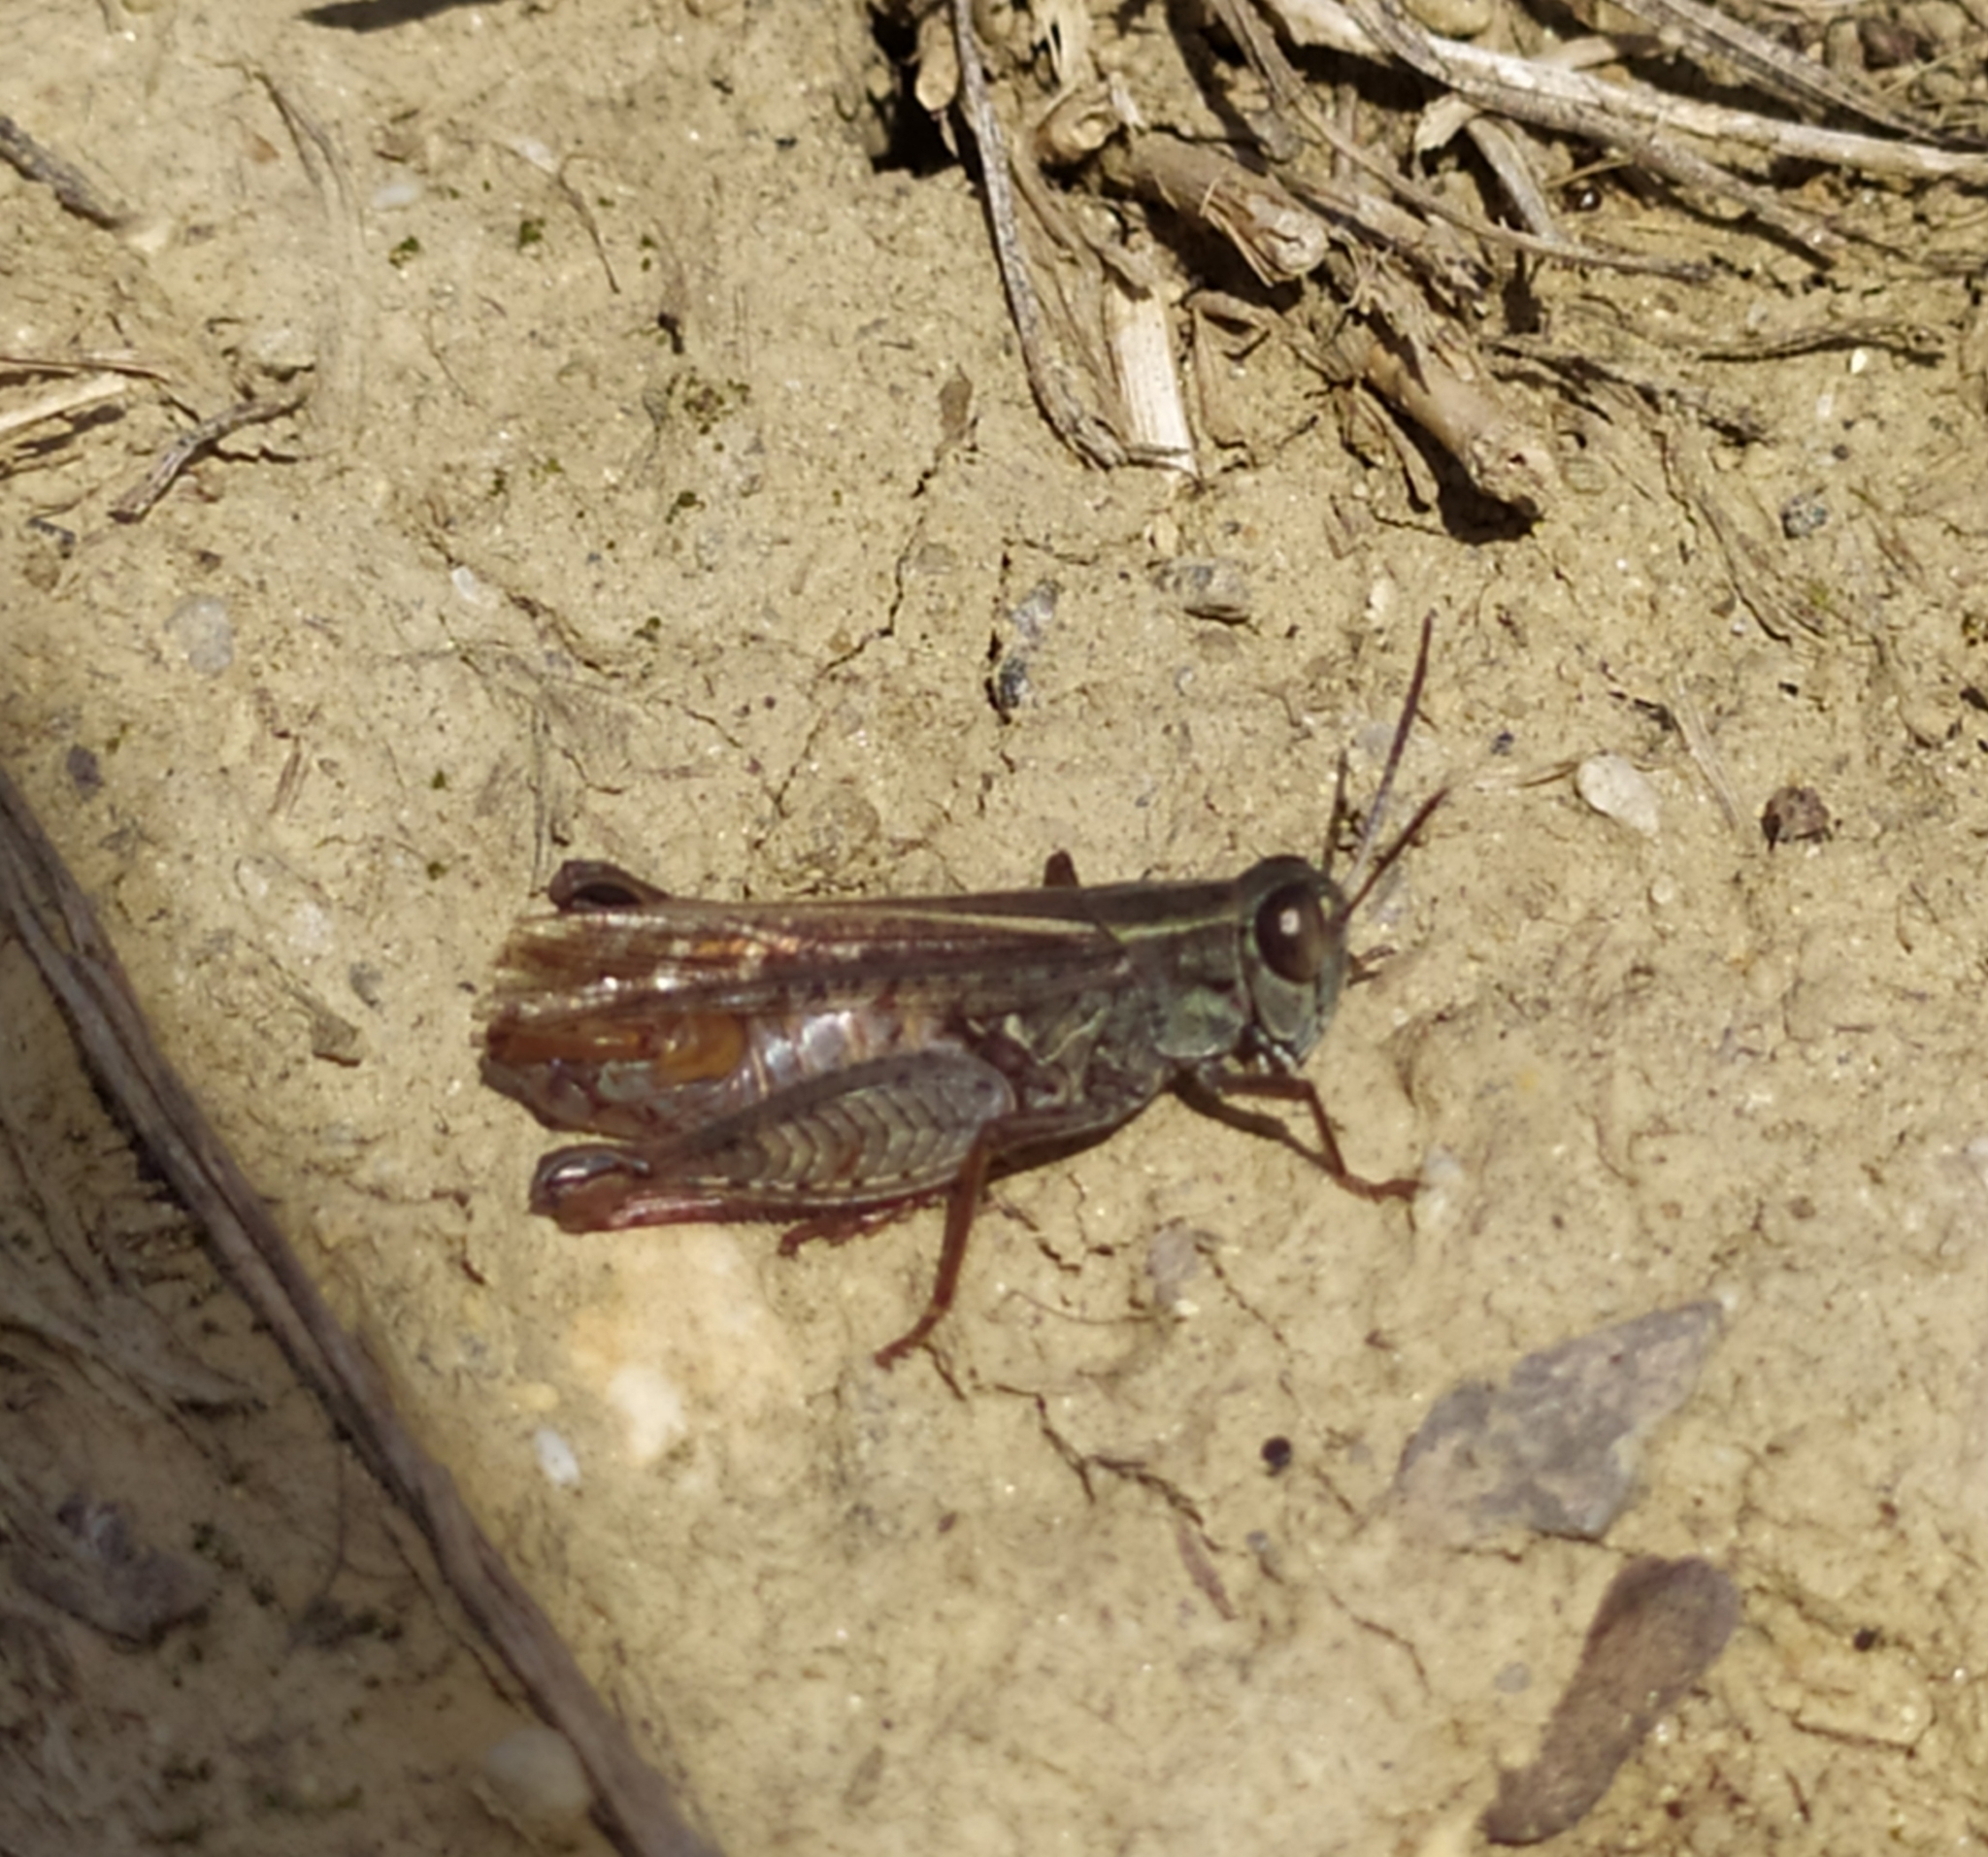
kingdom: Animalia
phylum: Arthropoda
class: Insecta
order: Orthoptera
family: Acrididae
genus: Calliptamus
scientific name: Calliptamus italicus
